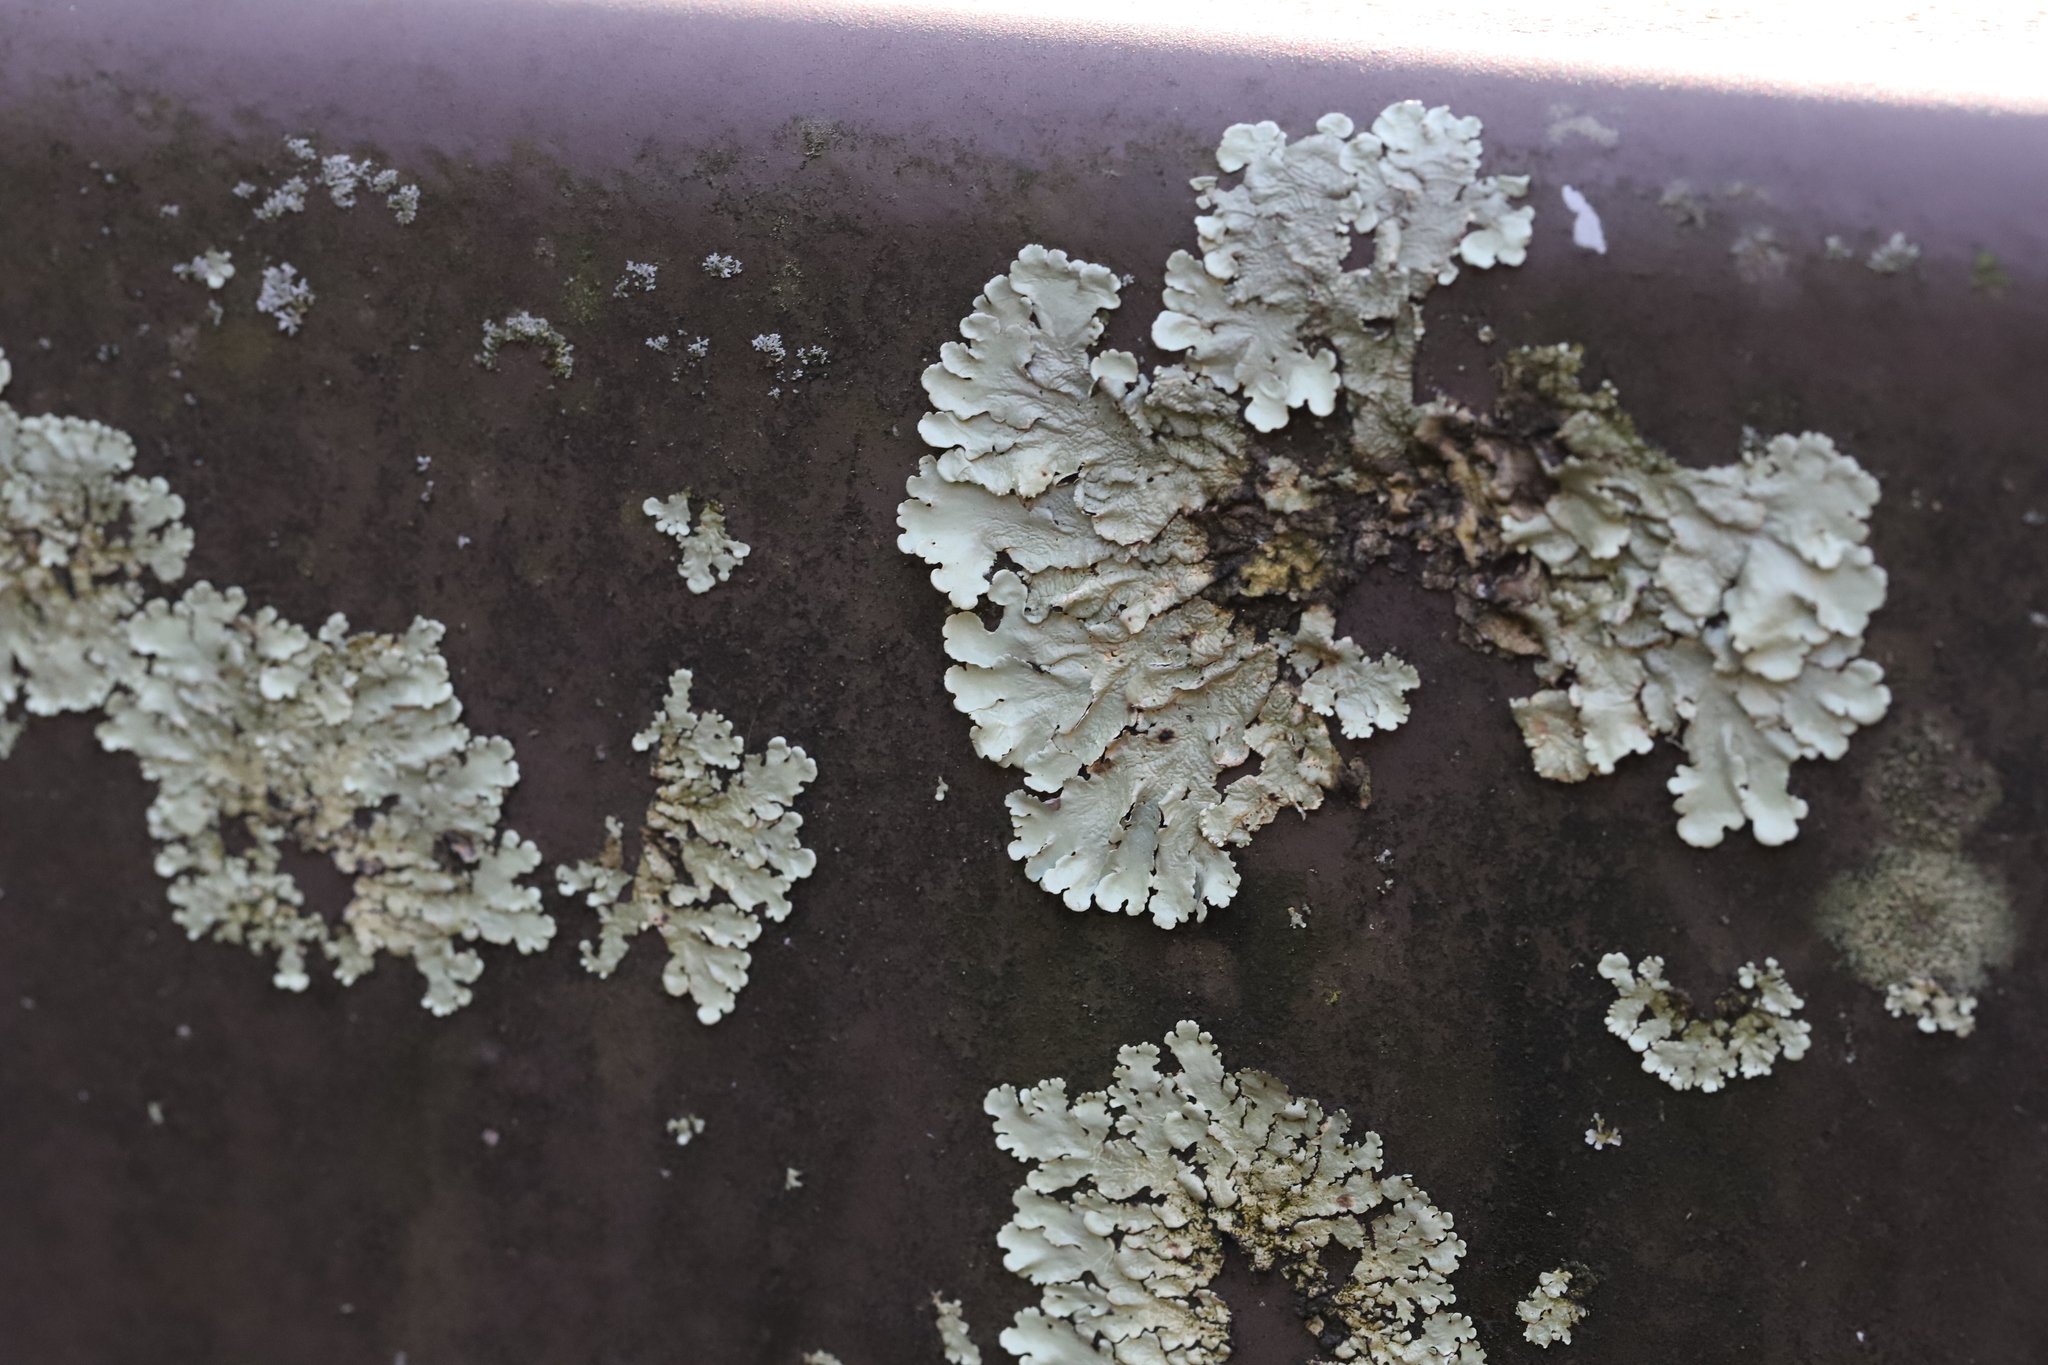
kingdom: Fungi
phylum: Ascomycota
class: Lecanoromycetes
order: Lecanorales
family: Parmeliaceae
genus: Flavoparmelia
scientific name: Flavoparmelia caperata
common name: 40-mile per hour lichen
